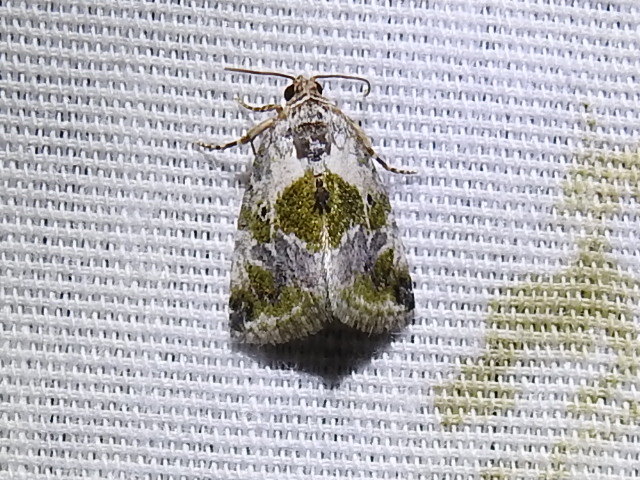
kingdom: Animalia
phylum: Arthropoda
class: Insecta
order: Lepidoptera
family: Noctuidae
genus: Maliattha
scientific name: Maliattha synochitis
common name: Black-dotted glyph
